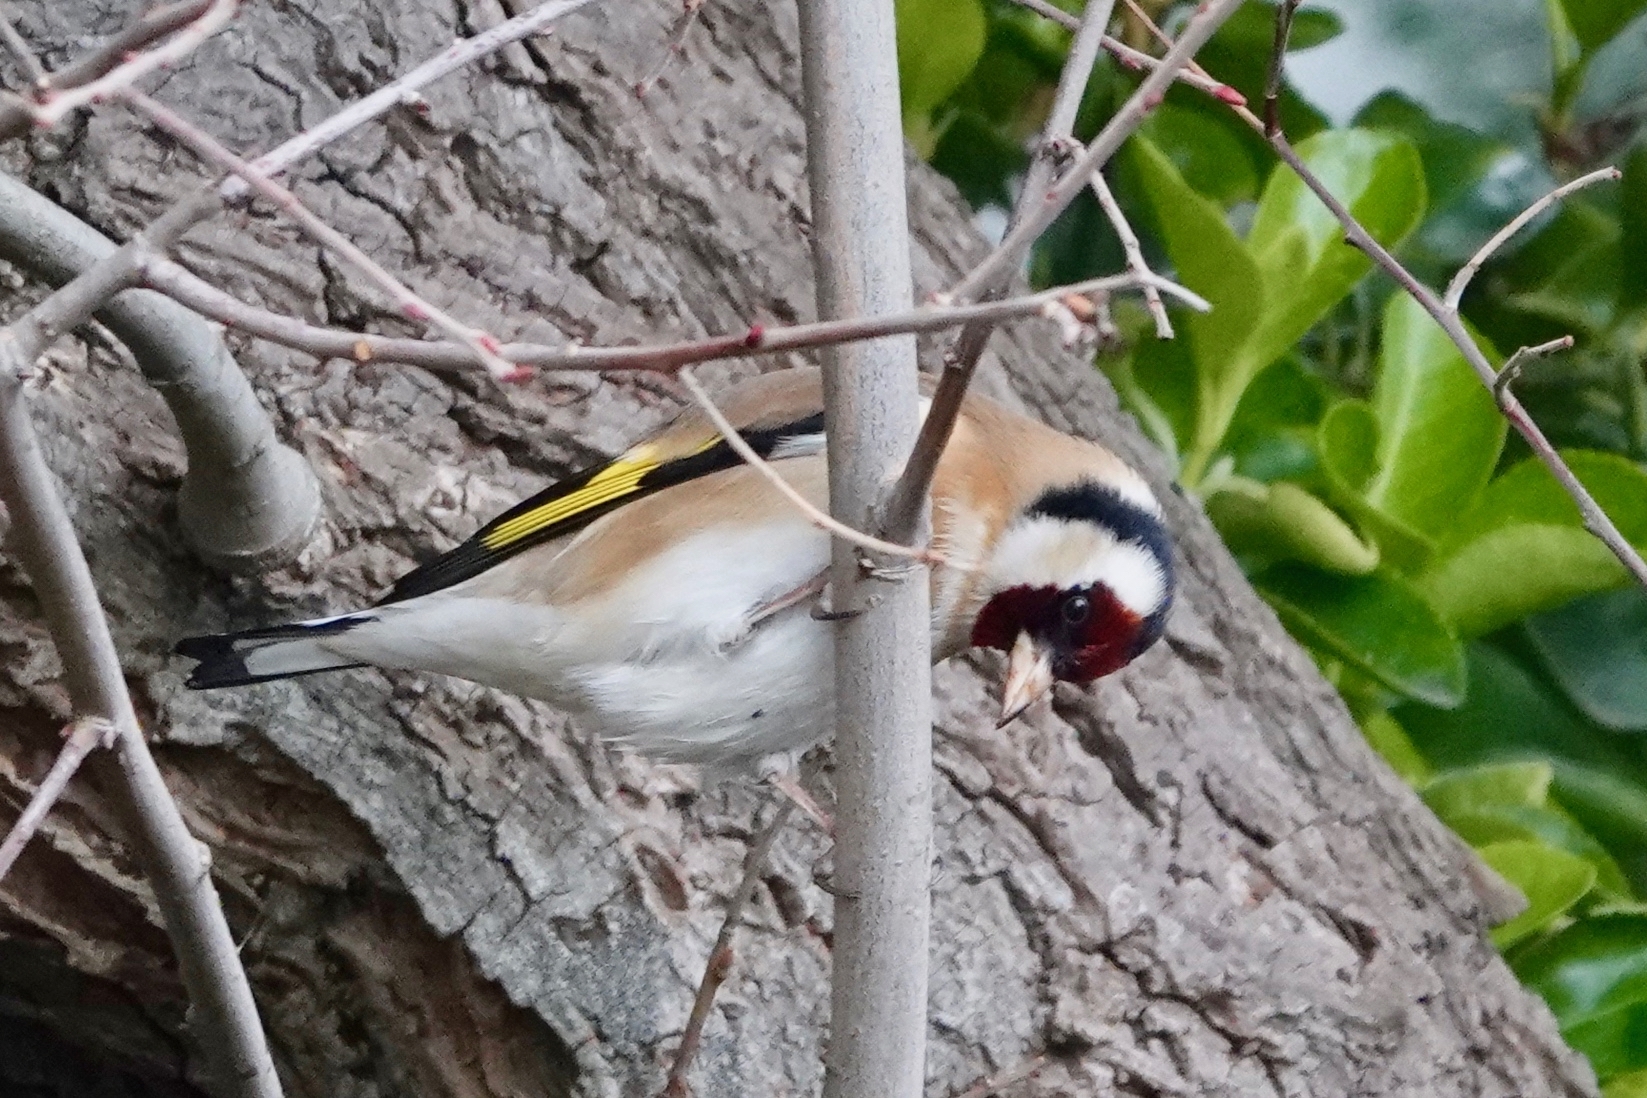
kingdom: Animalia
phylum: Chordata
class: Aves
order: Passeriformes
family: Fringillidae
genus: Carduelis
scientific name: Carduelis carduelis
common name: European goldfinch
